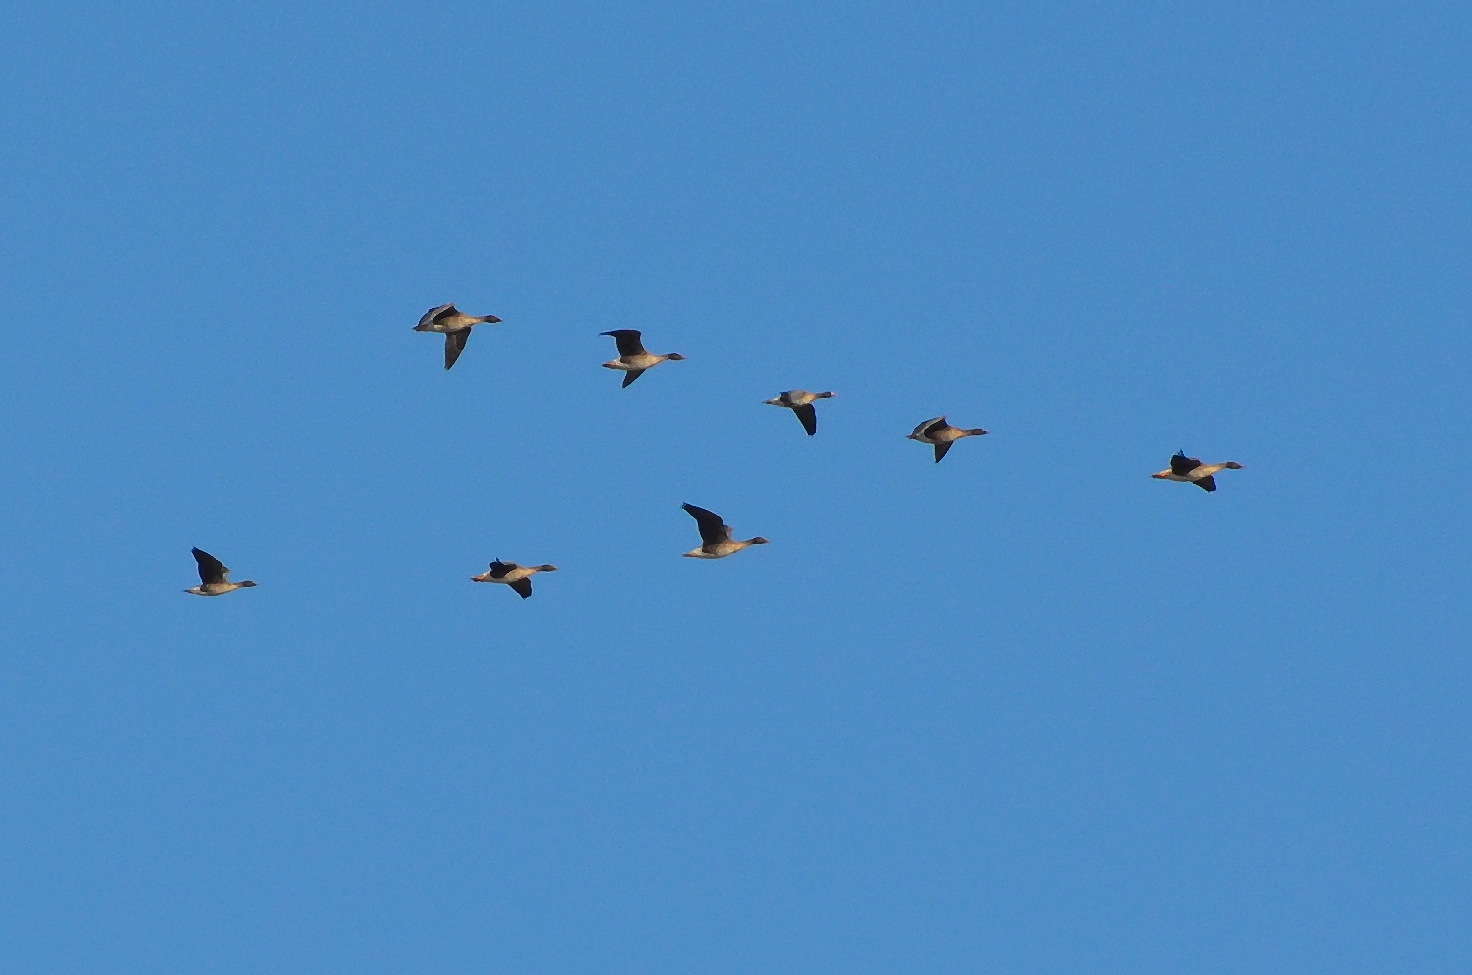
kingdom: Animalia
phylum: Chordata
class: Aves
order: Anseriformes
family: Anatidae
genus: Anser
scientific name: Anser fabalis
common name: Bean goose
